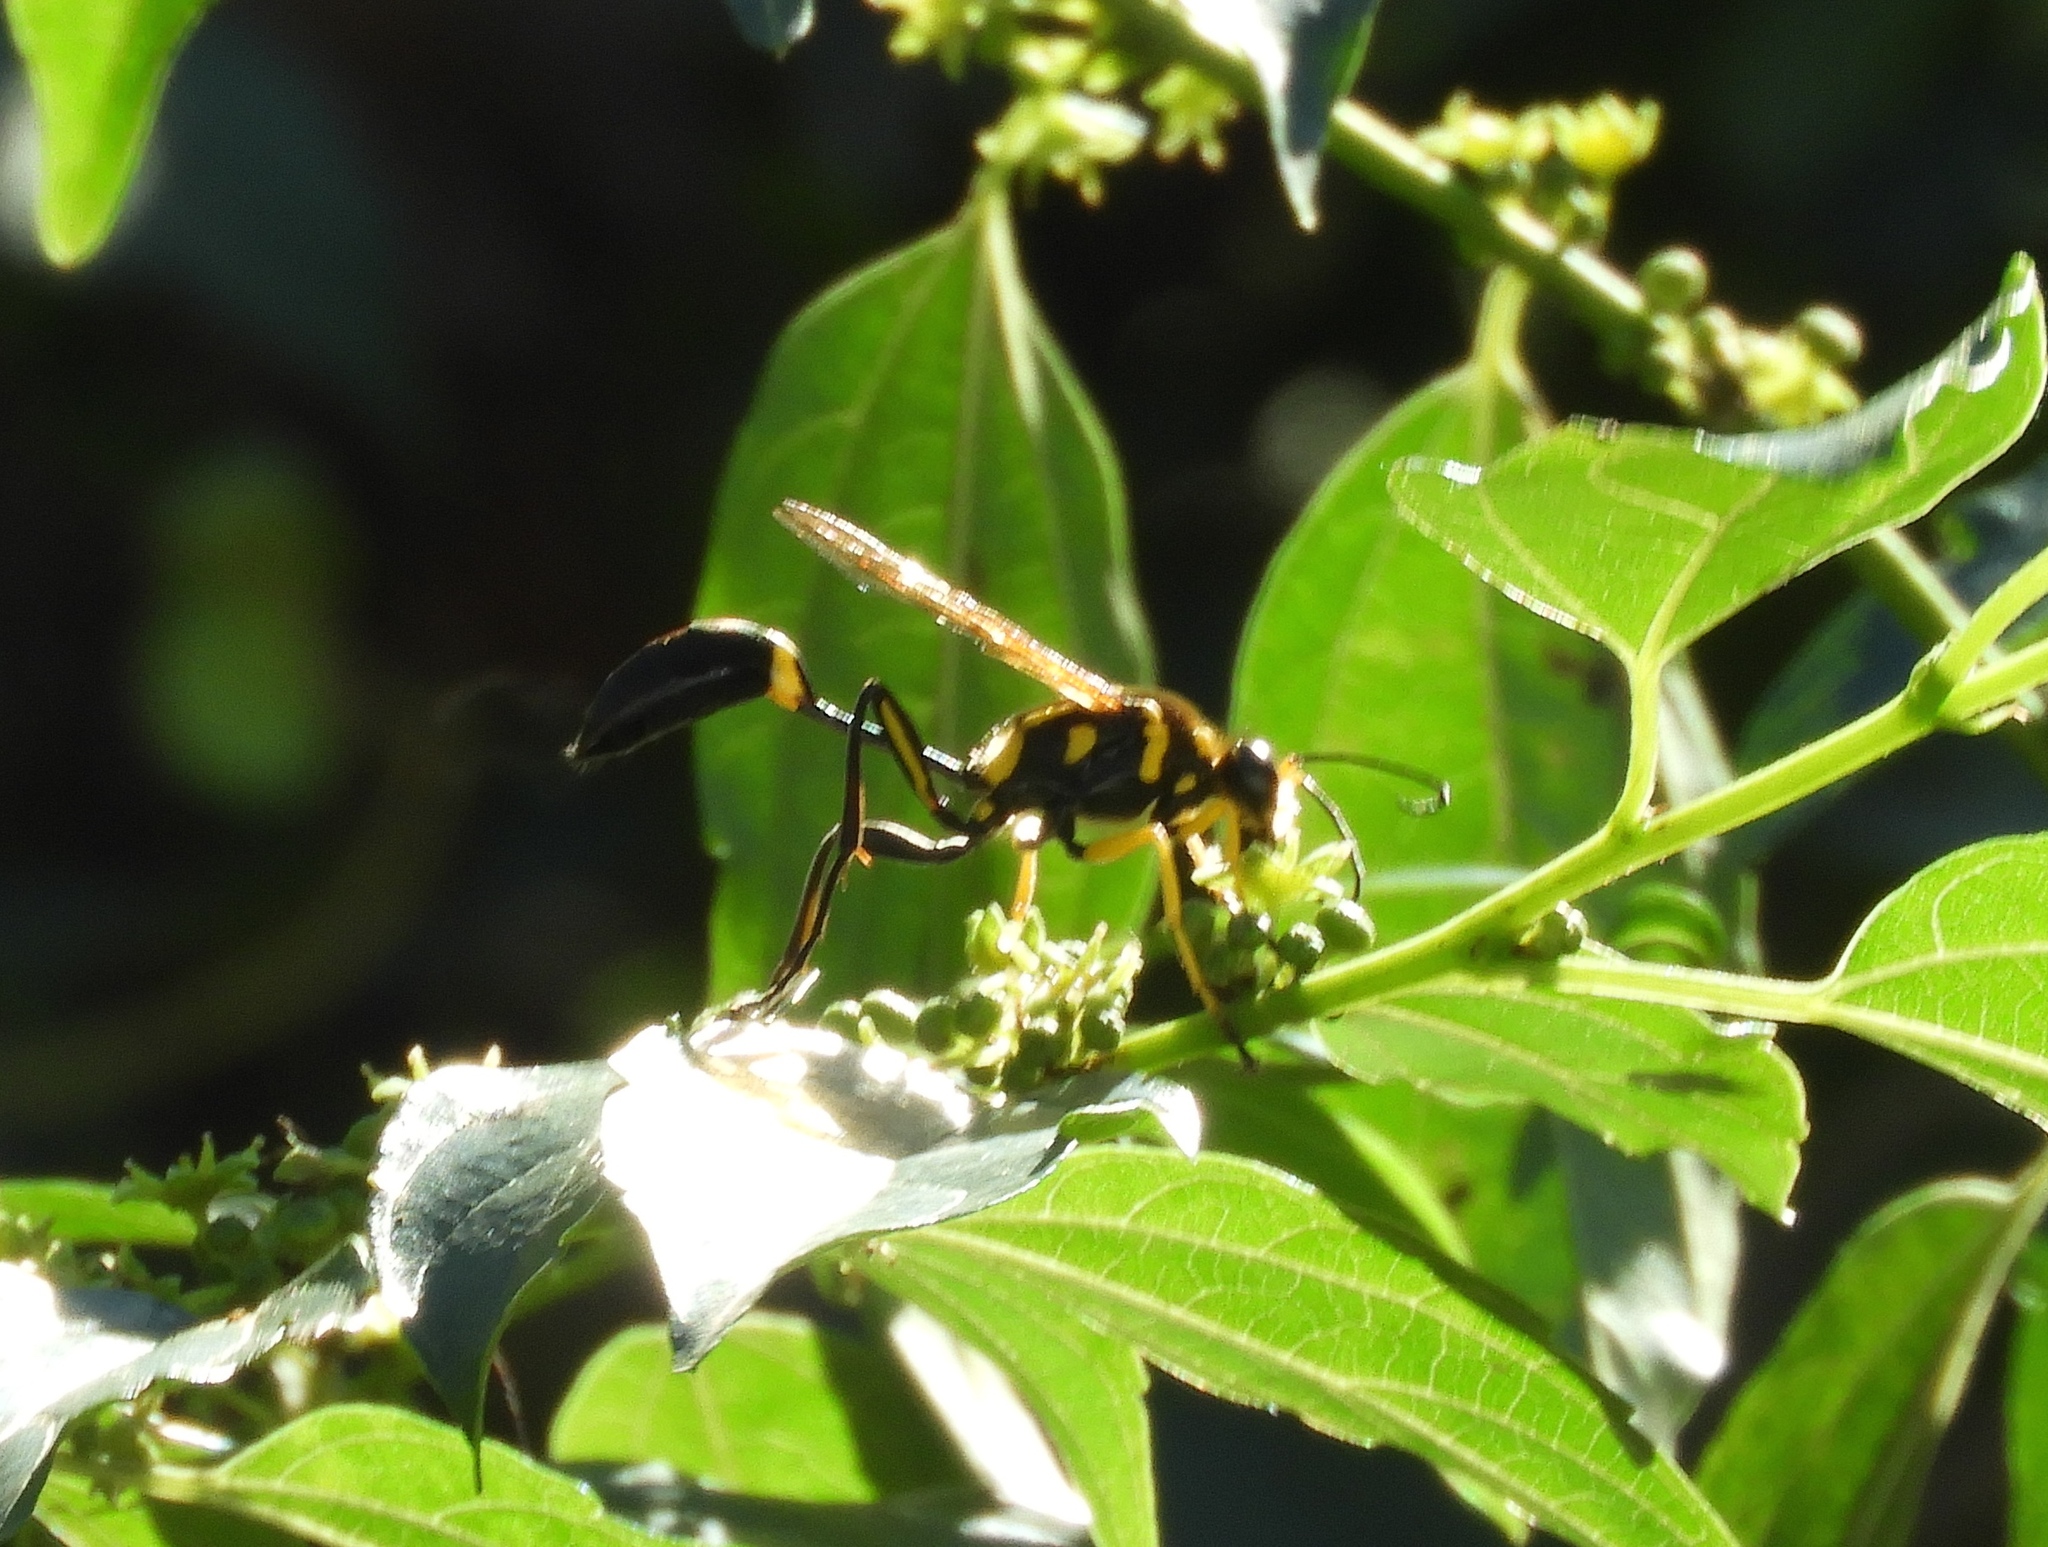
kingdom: Animalia
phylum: Arthropoda
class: Insecta
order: Hymenoptera
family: Sphecidae
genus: Sceliphron
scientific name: Sceliphron fistularium
